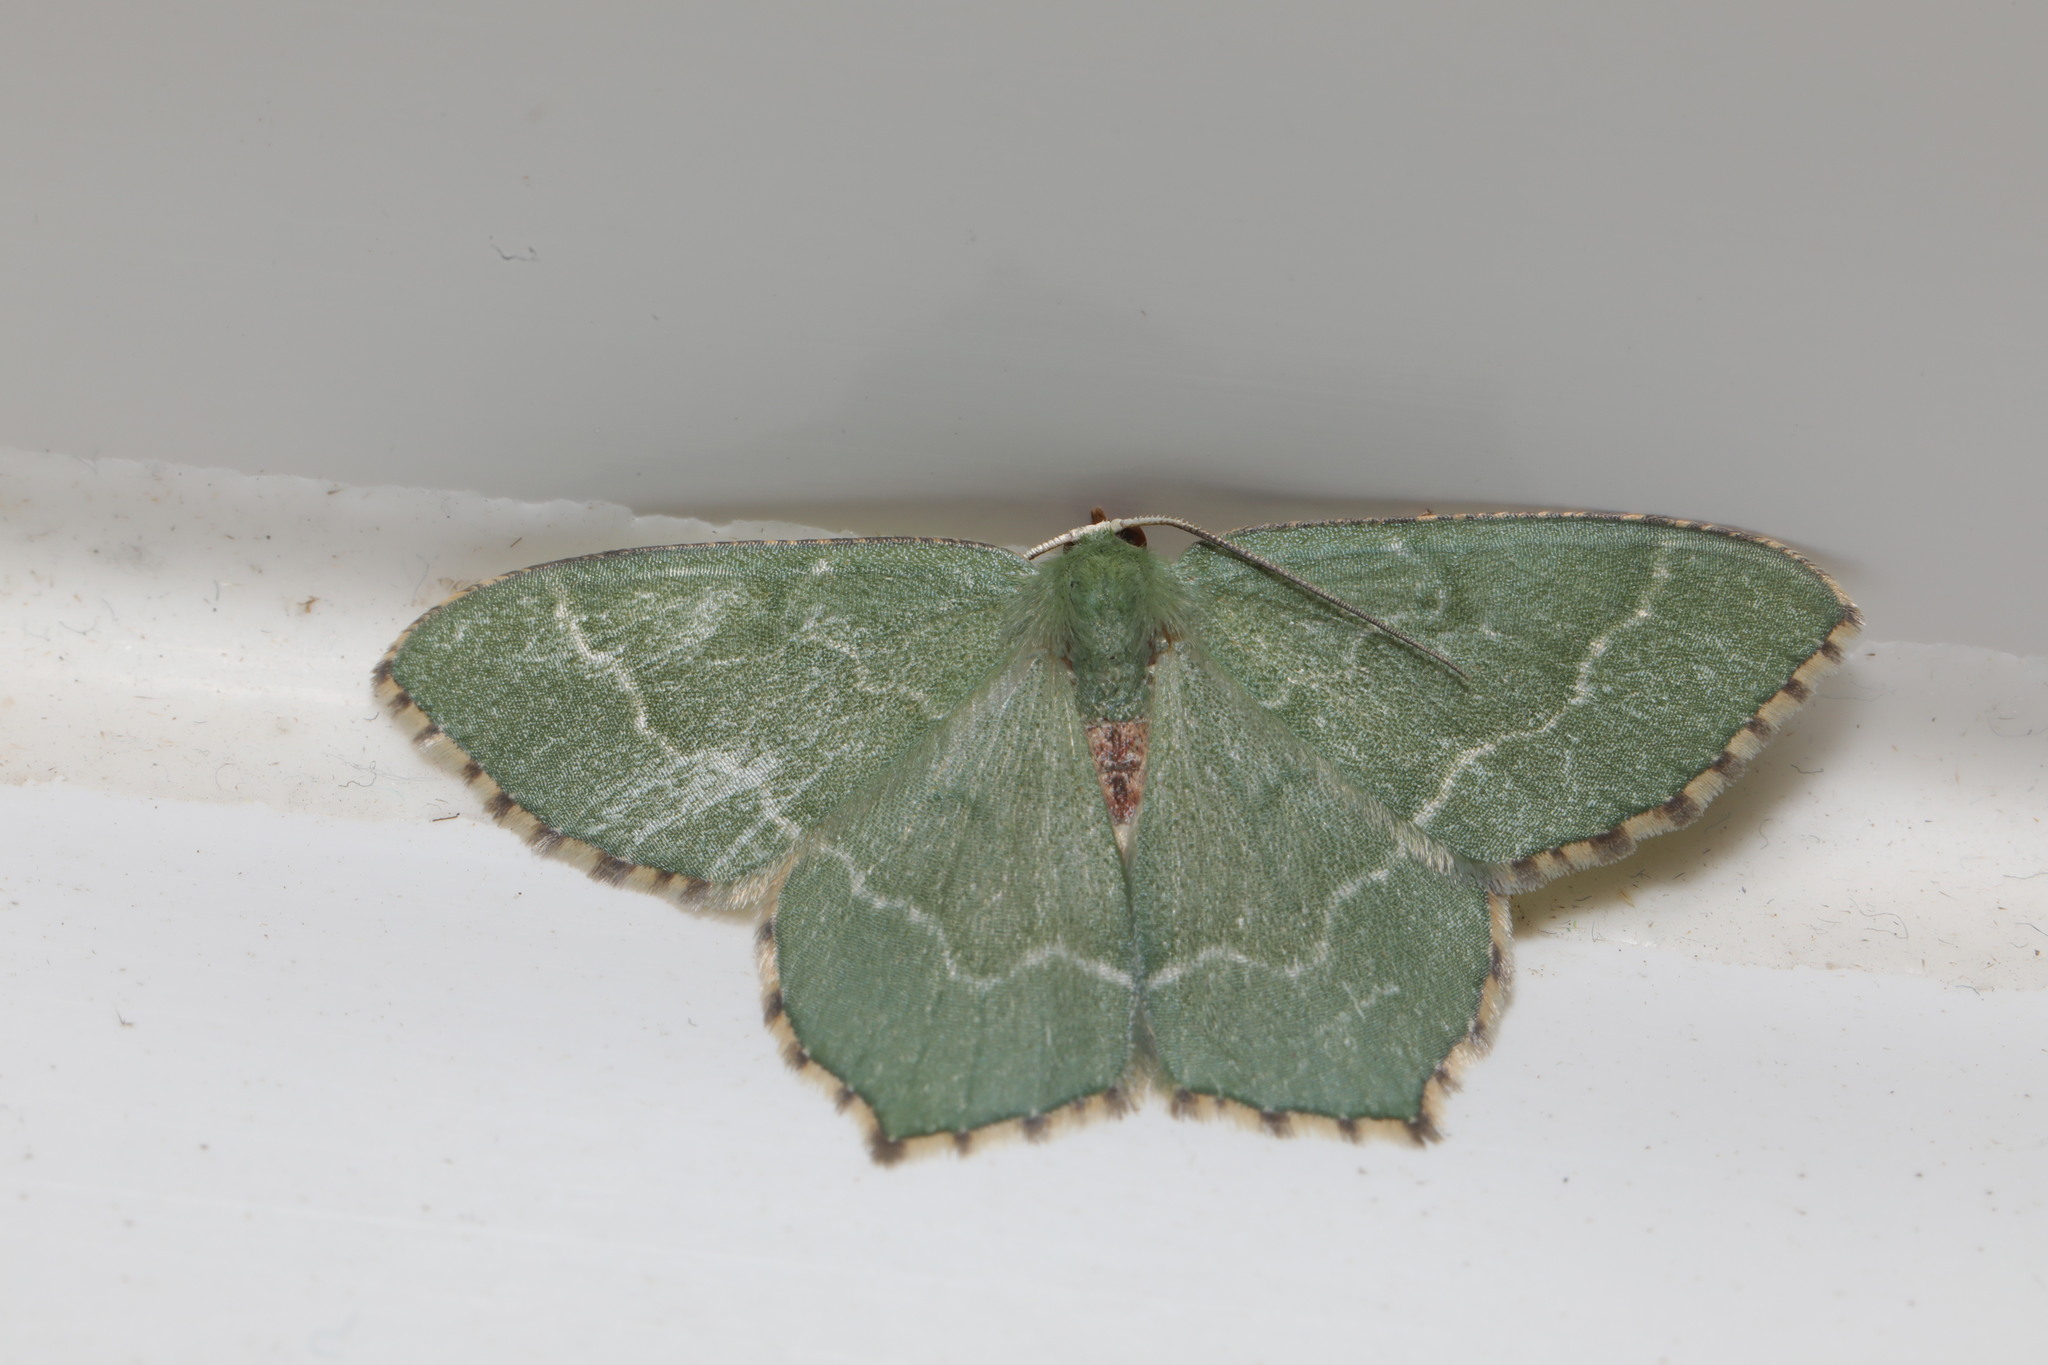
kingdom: Animalia
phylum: Arthropoda
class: Insecta
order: Lepidoptera
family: Geometridae
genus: Hemithea
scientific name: Hemithea aestivaria
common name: Common emerald
